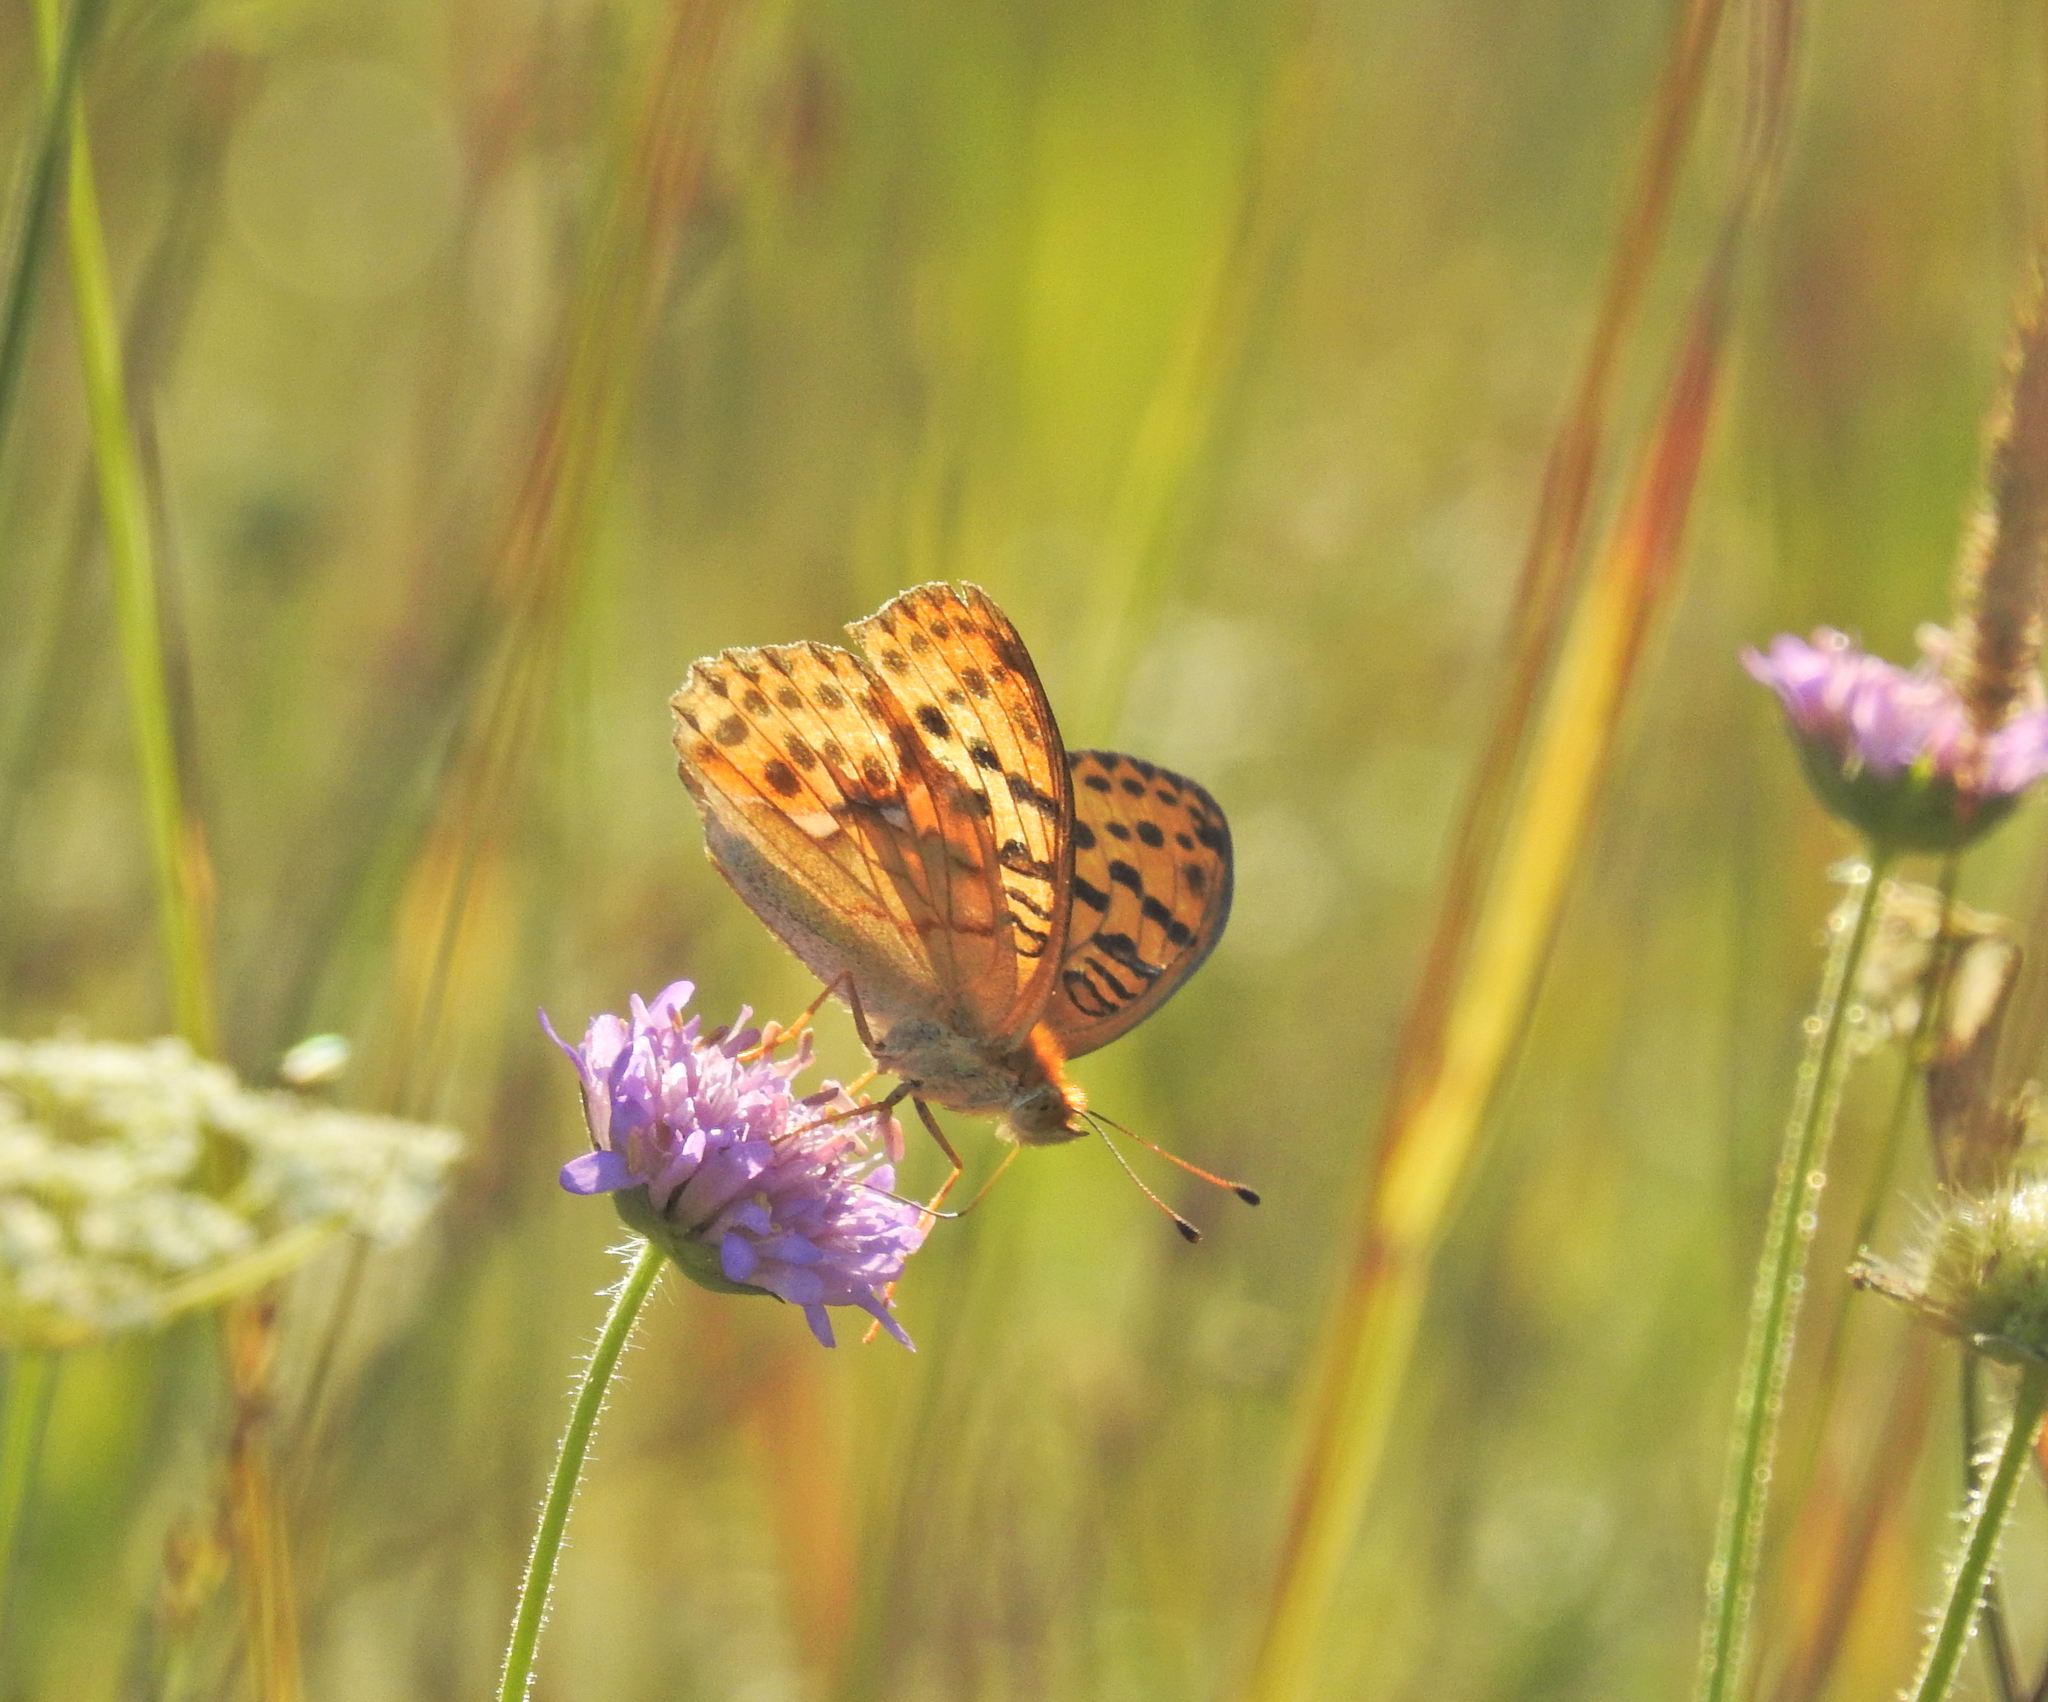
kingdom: Animalia
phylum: Arthropoda
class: Insecta
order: Lepidoptera
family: Nymphalidae
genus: Argyronome
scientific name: Argyronome laodice
